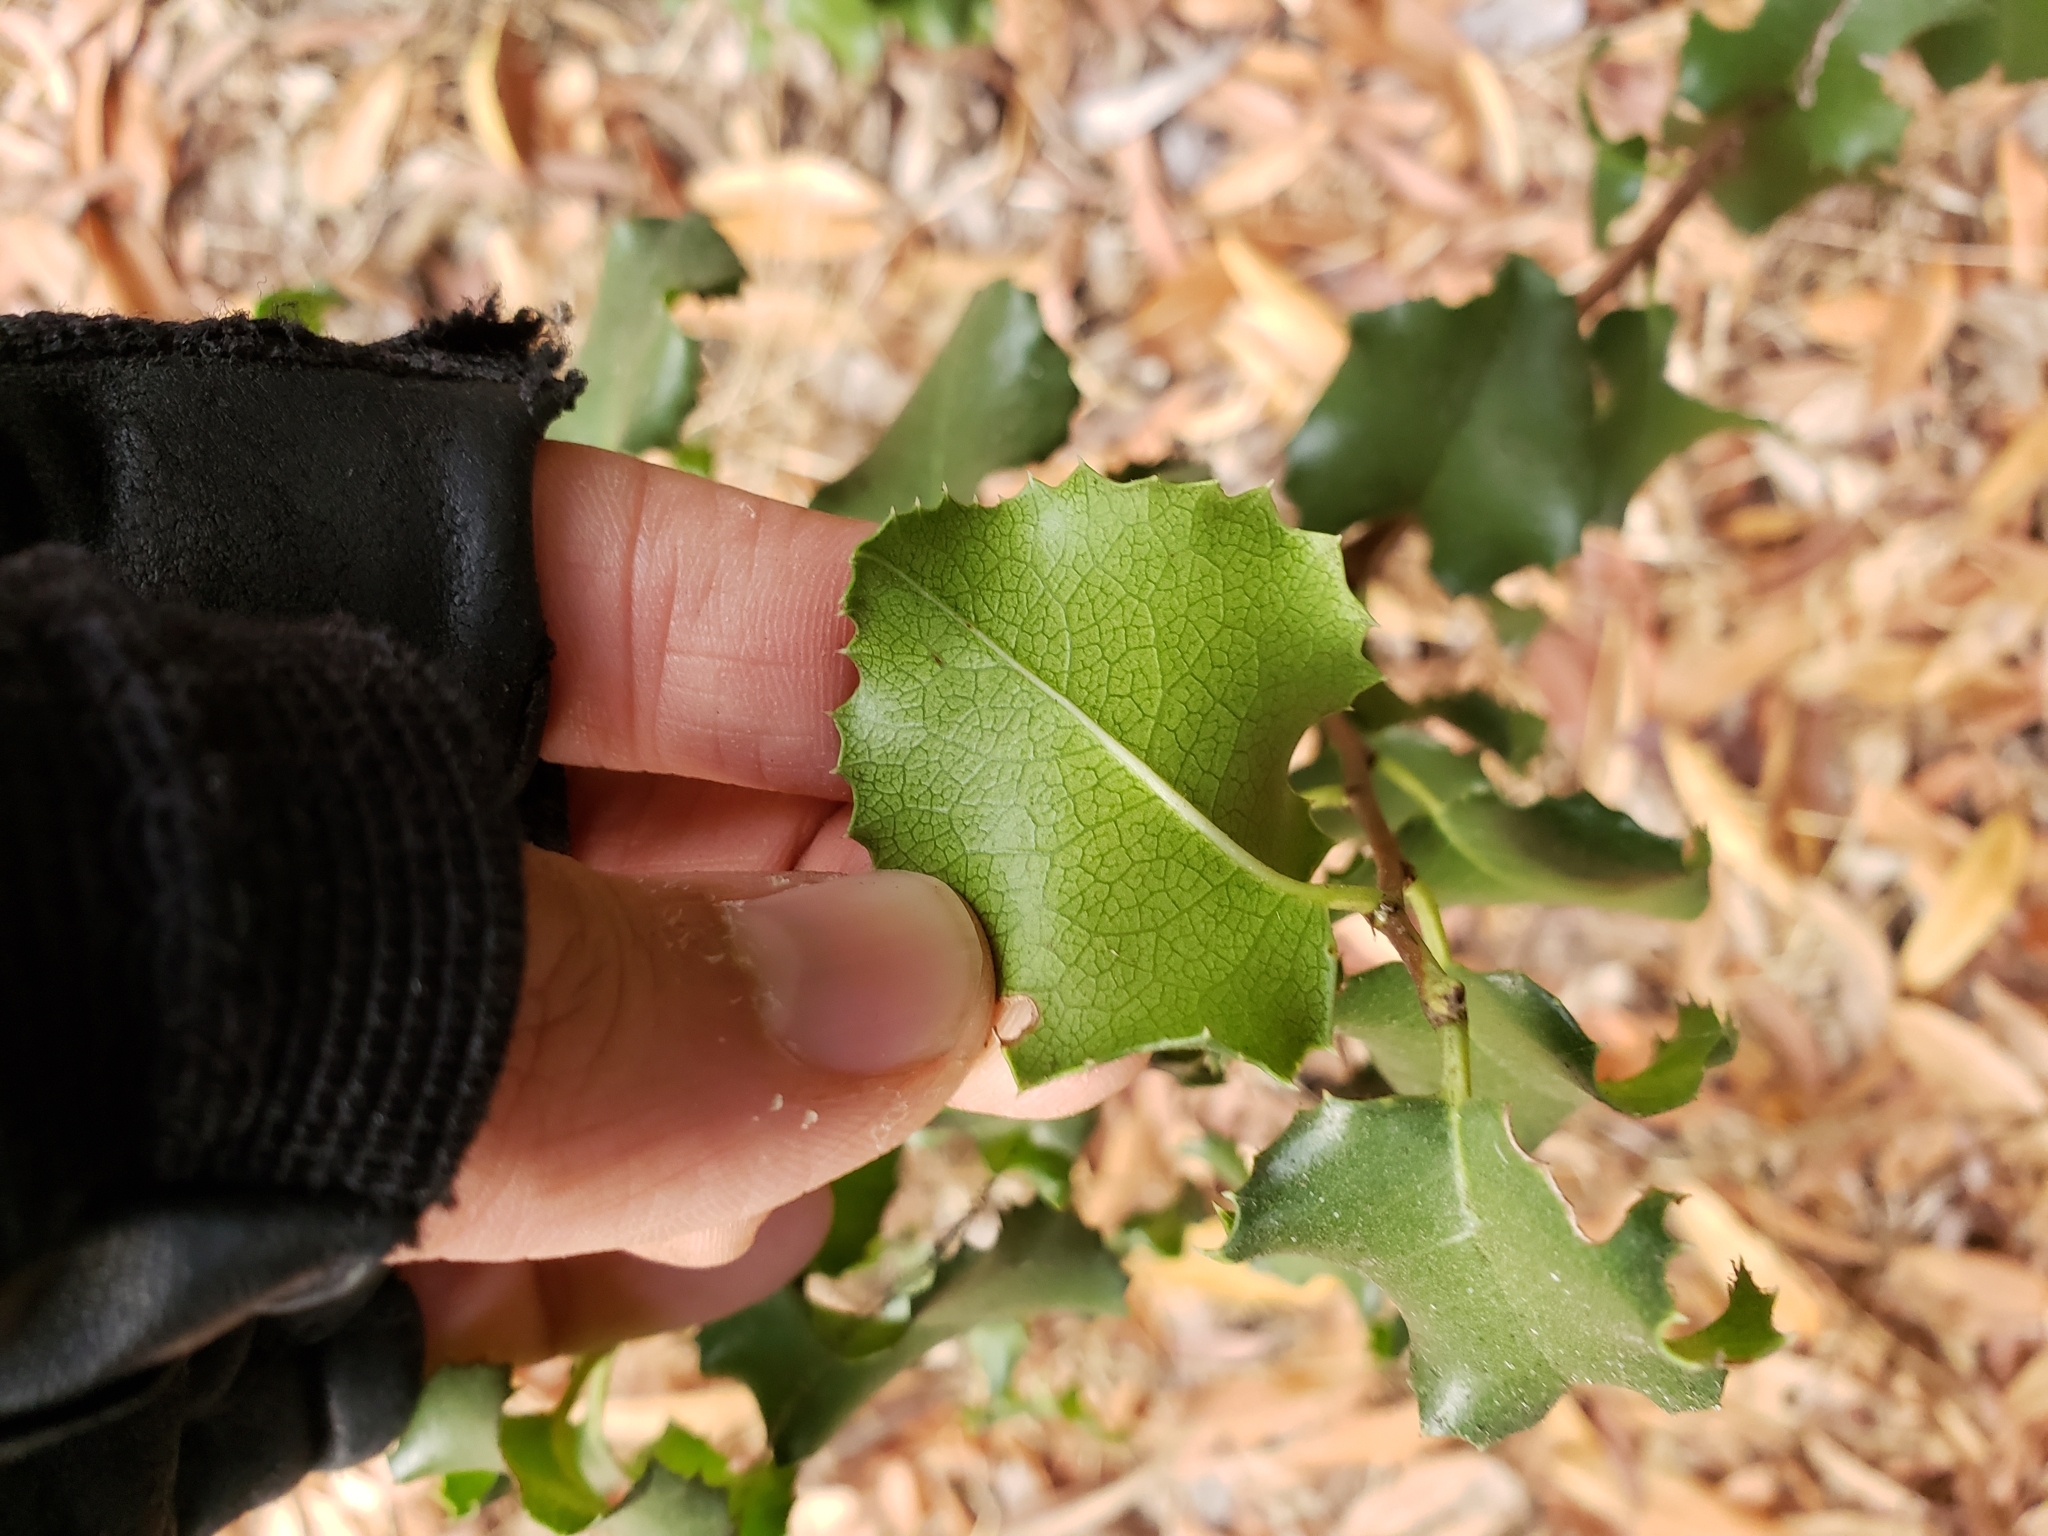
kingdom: Plantae
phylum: Tracheophyta
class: Magnoliopsida
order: Rosales
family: Rosaceae
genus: Prunus
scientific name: Prunus ilicifolia
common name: Hollyleaf cherry
